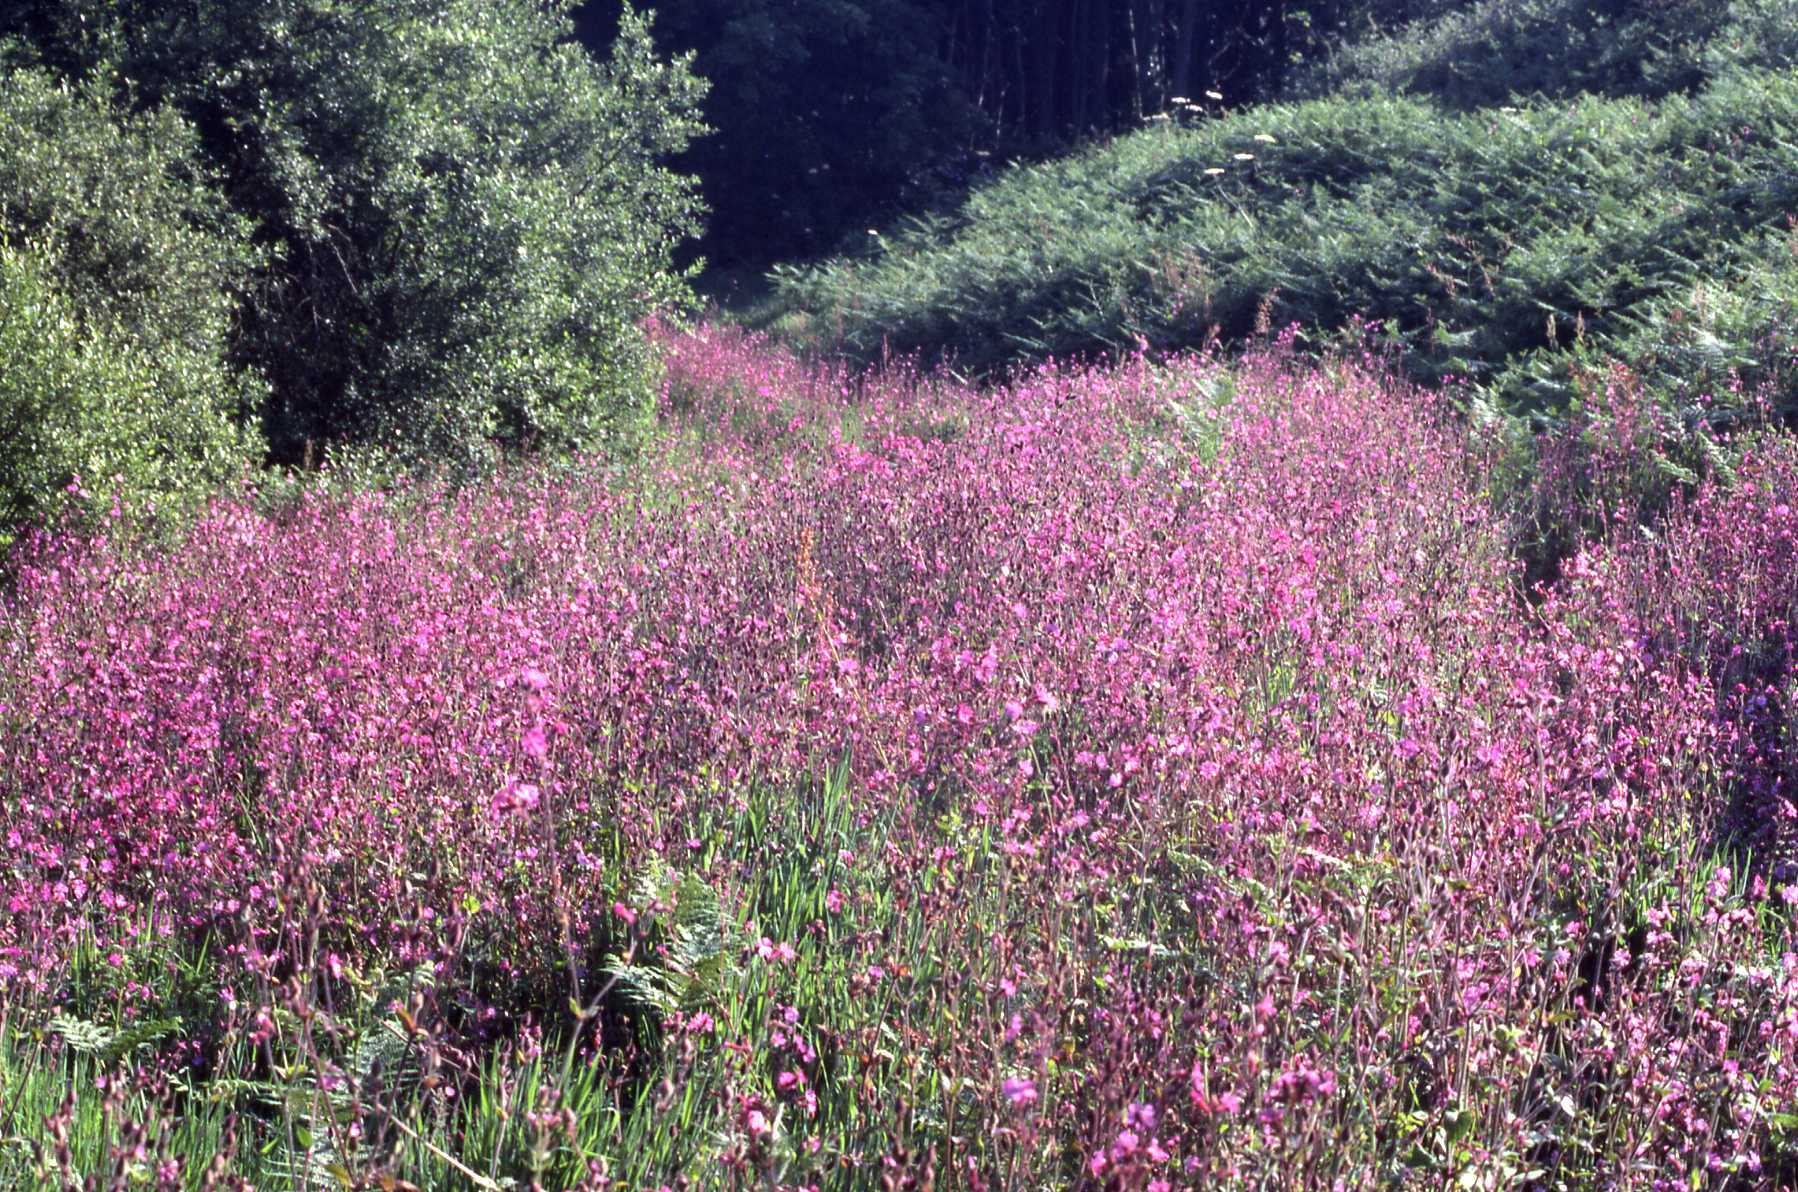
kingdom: Plantae
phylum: Tracheophyta
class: Magnoliopsida
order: Caryophyllales
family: Caryophyllaceae
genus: Silene
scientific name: Silene dioica
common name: Red campion
